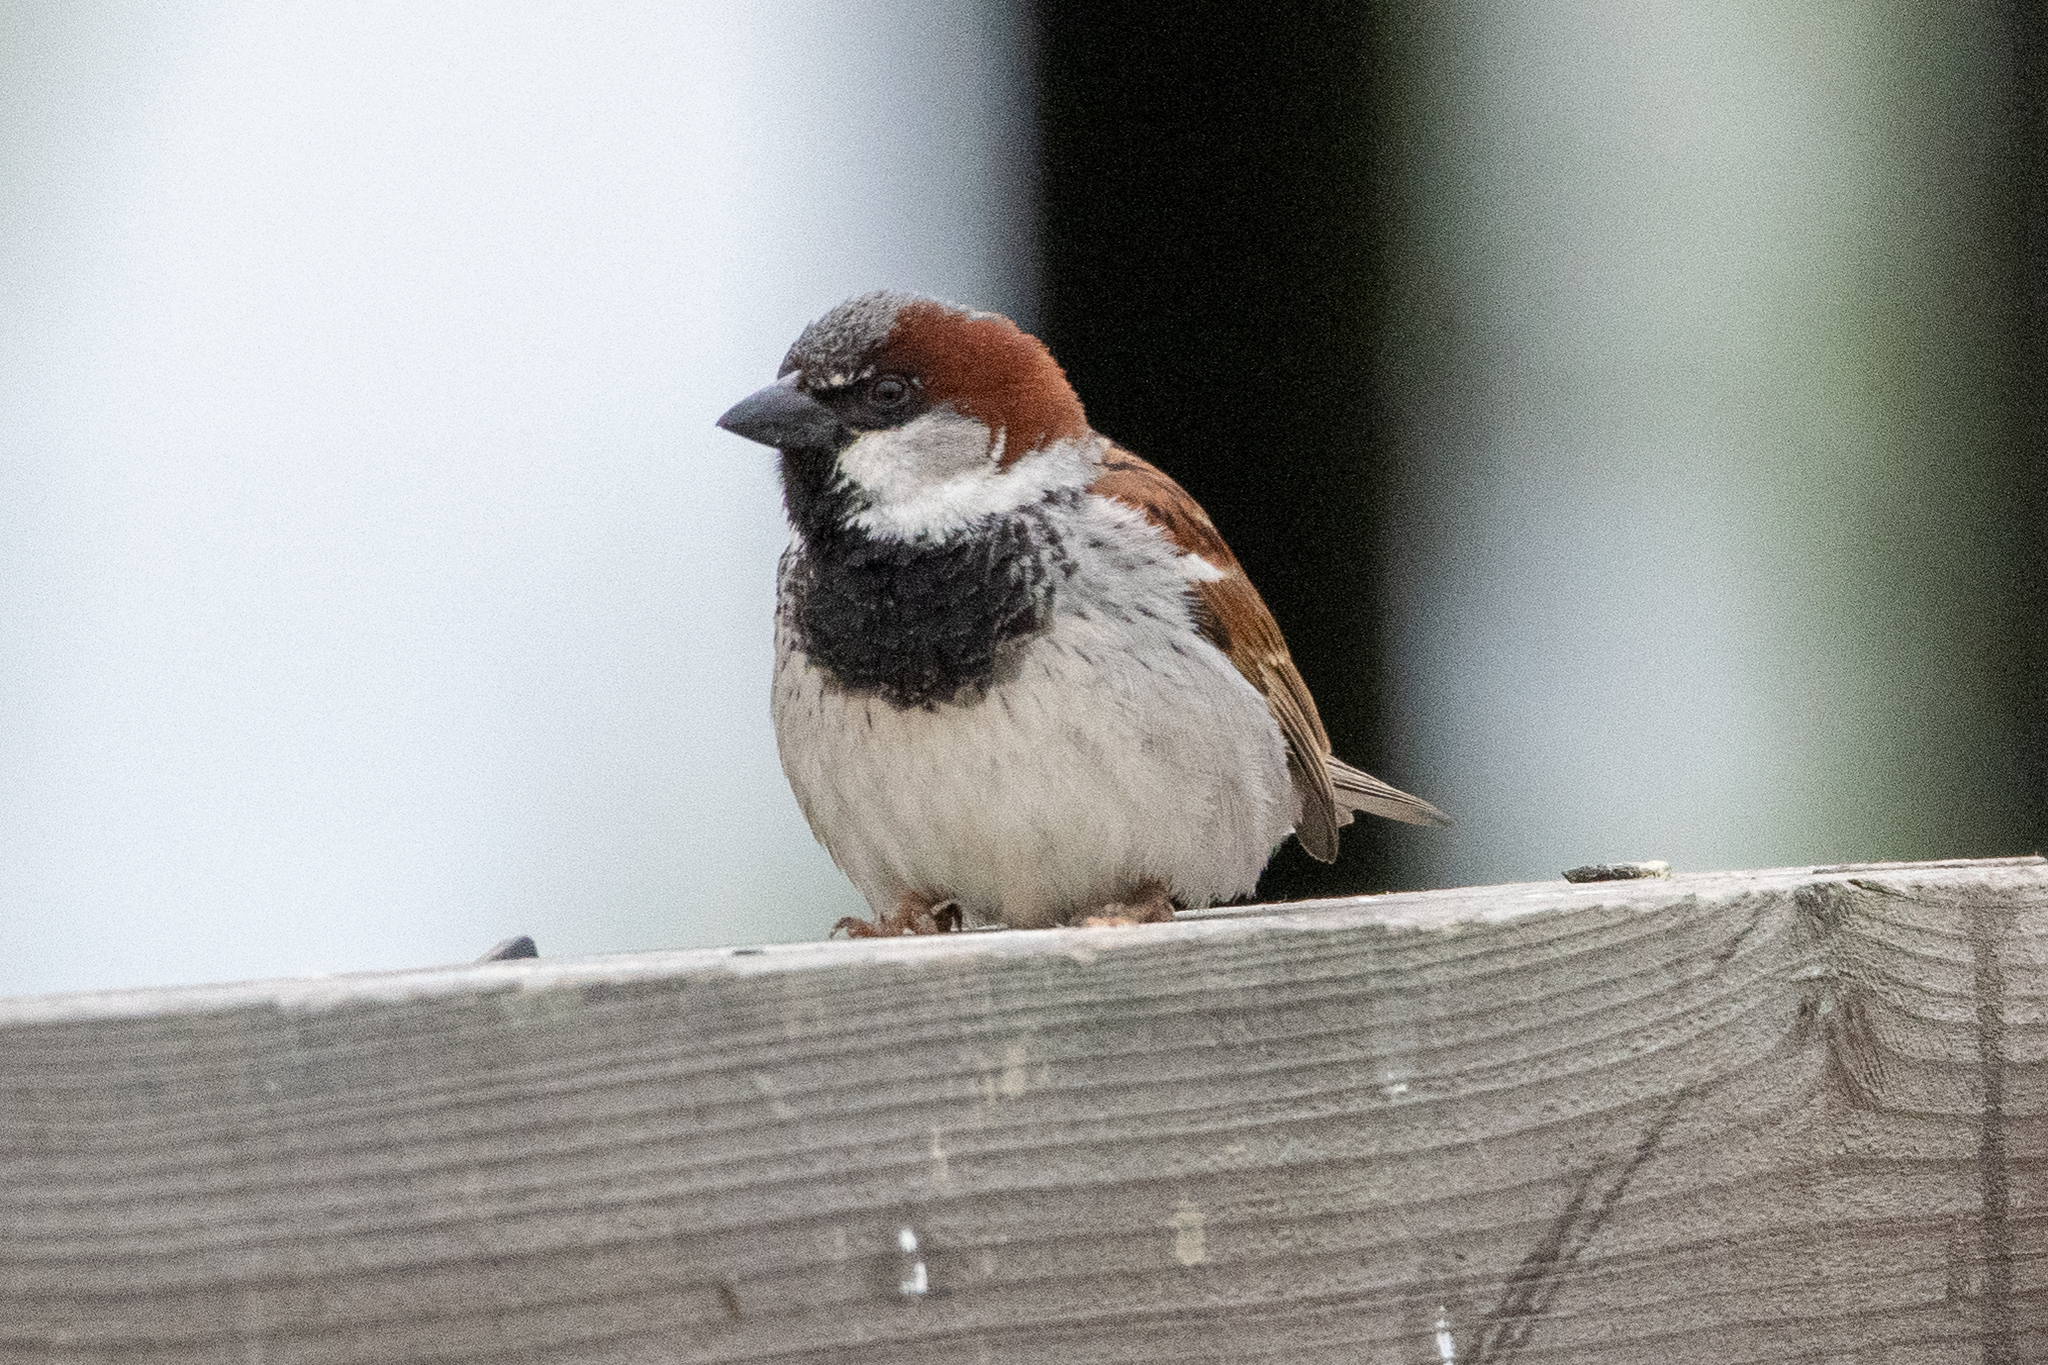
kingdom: Animalia
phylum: Chordata
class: Aves
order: Passeriformes
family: Passeridae
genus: Passer
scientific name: Passer domesticus
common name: House sparrow
